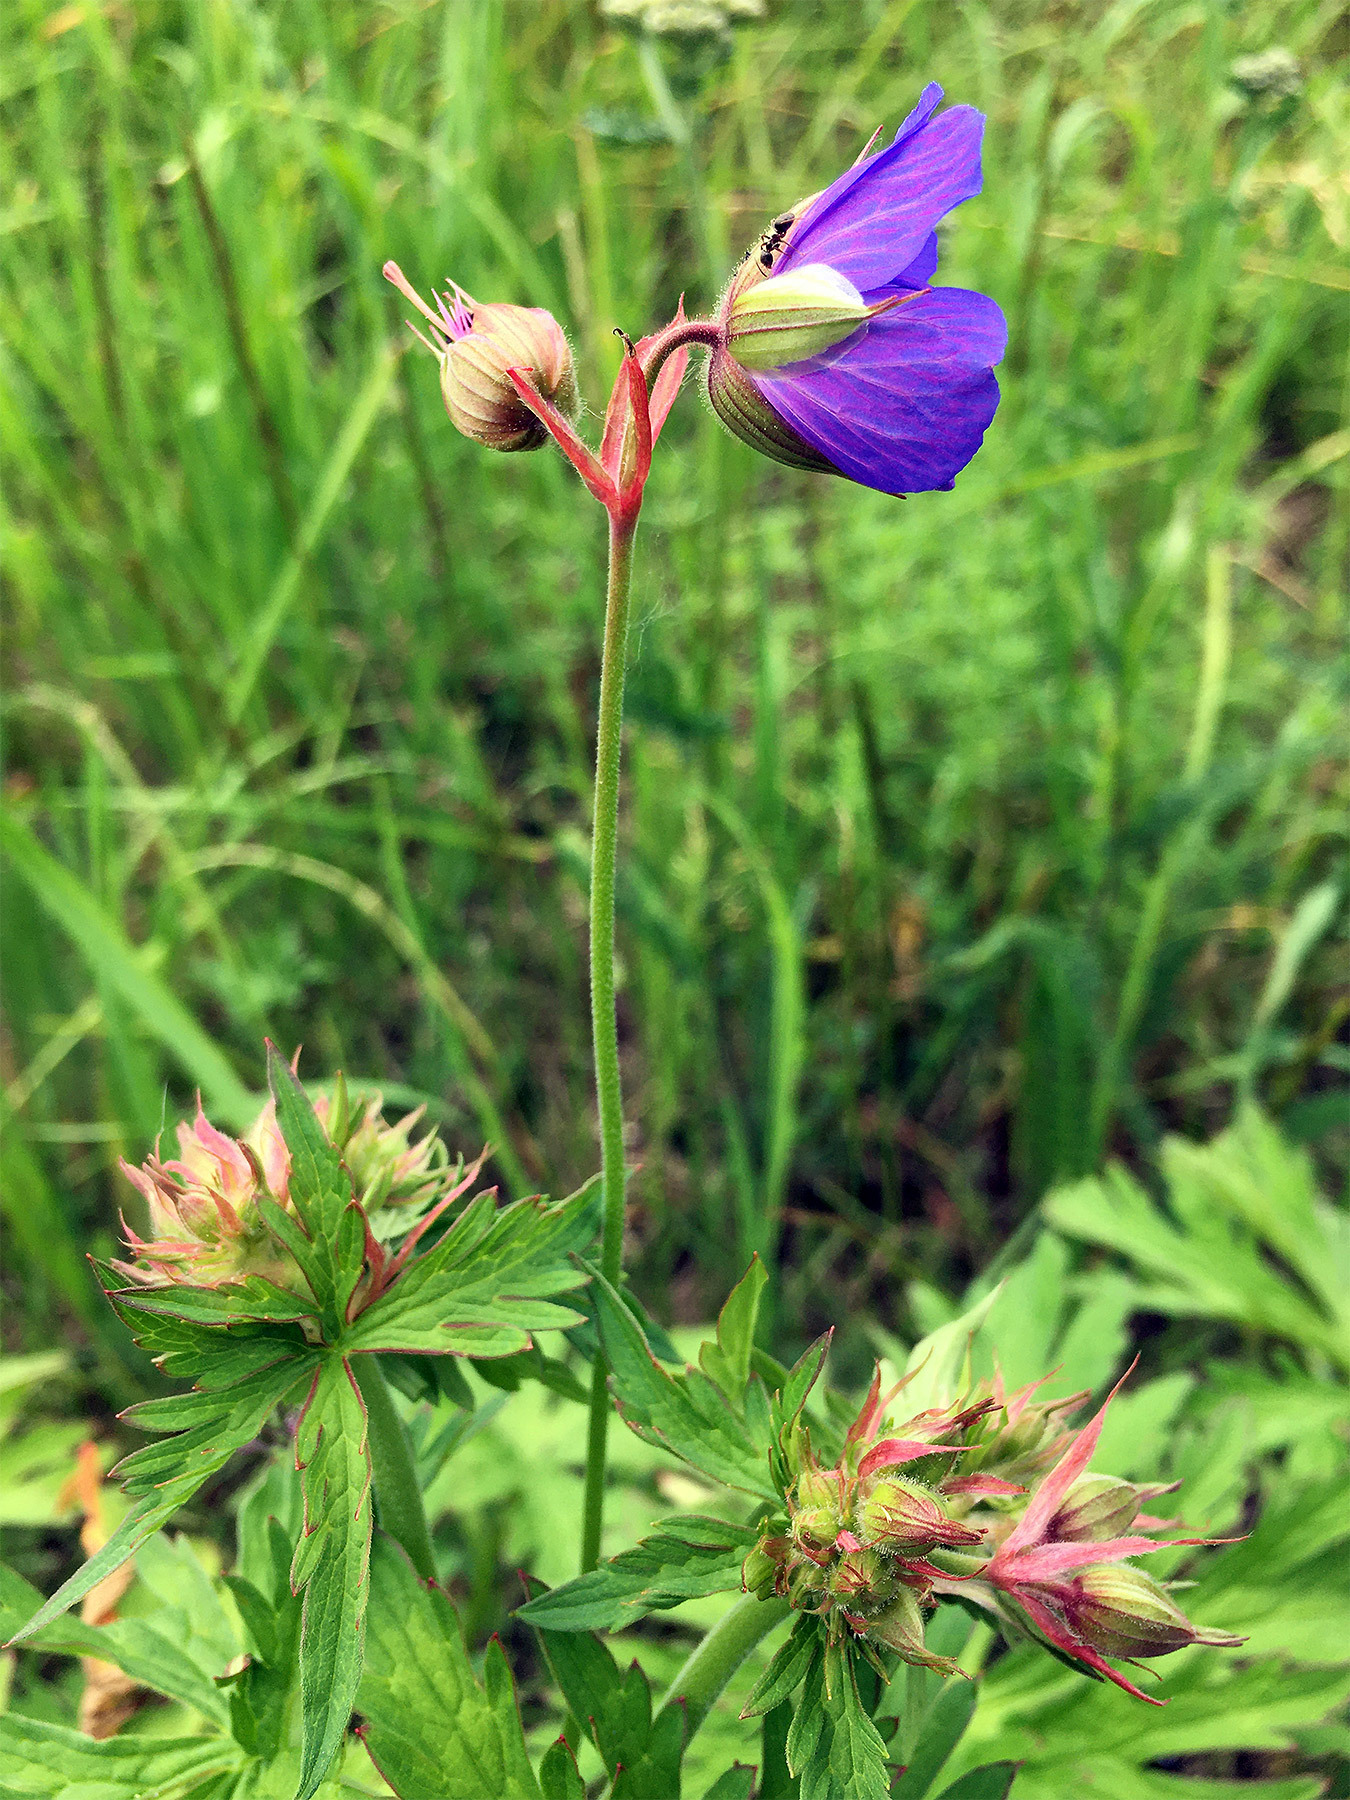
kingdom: Plantae
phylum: Tracheophyta
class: Magnoliopsida
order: Geraniales
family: Geraniaceae
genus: Geranium
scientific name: Geranium pratense
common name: Meadow crane's-bill
